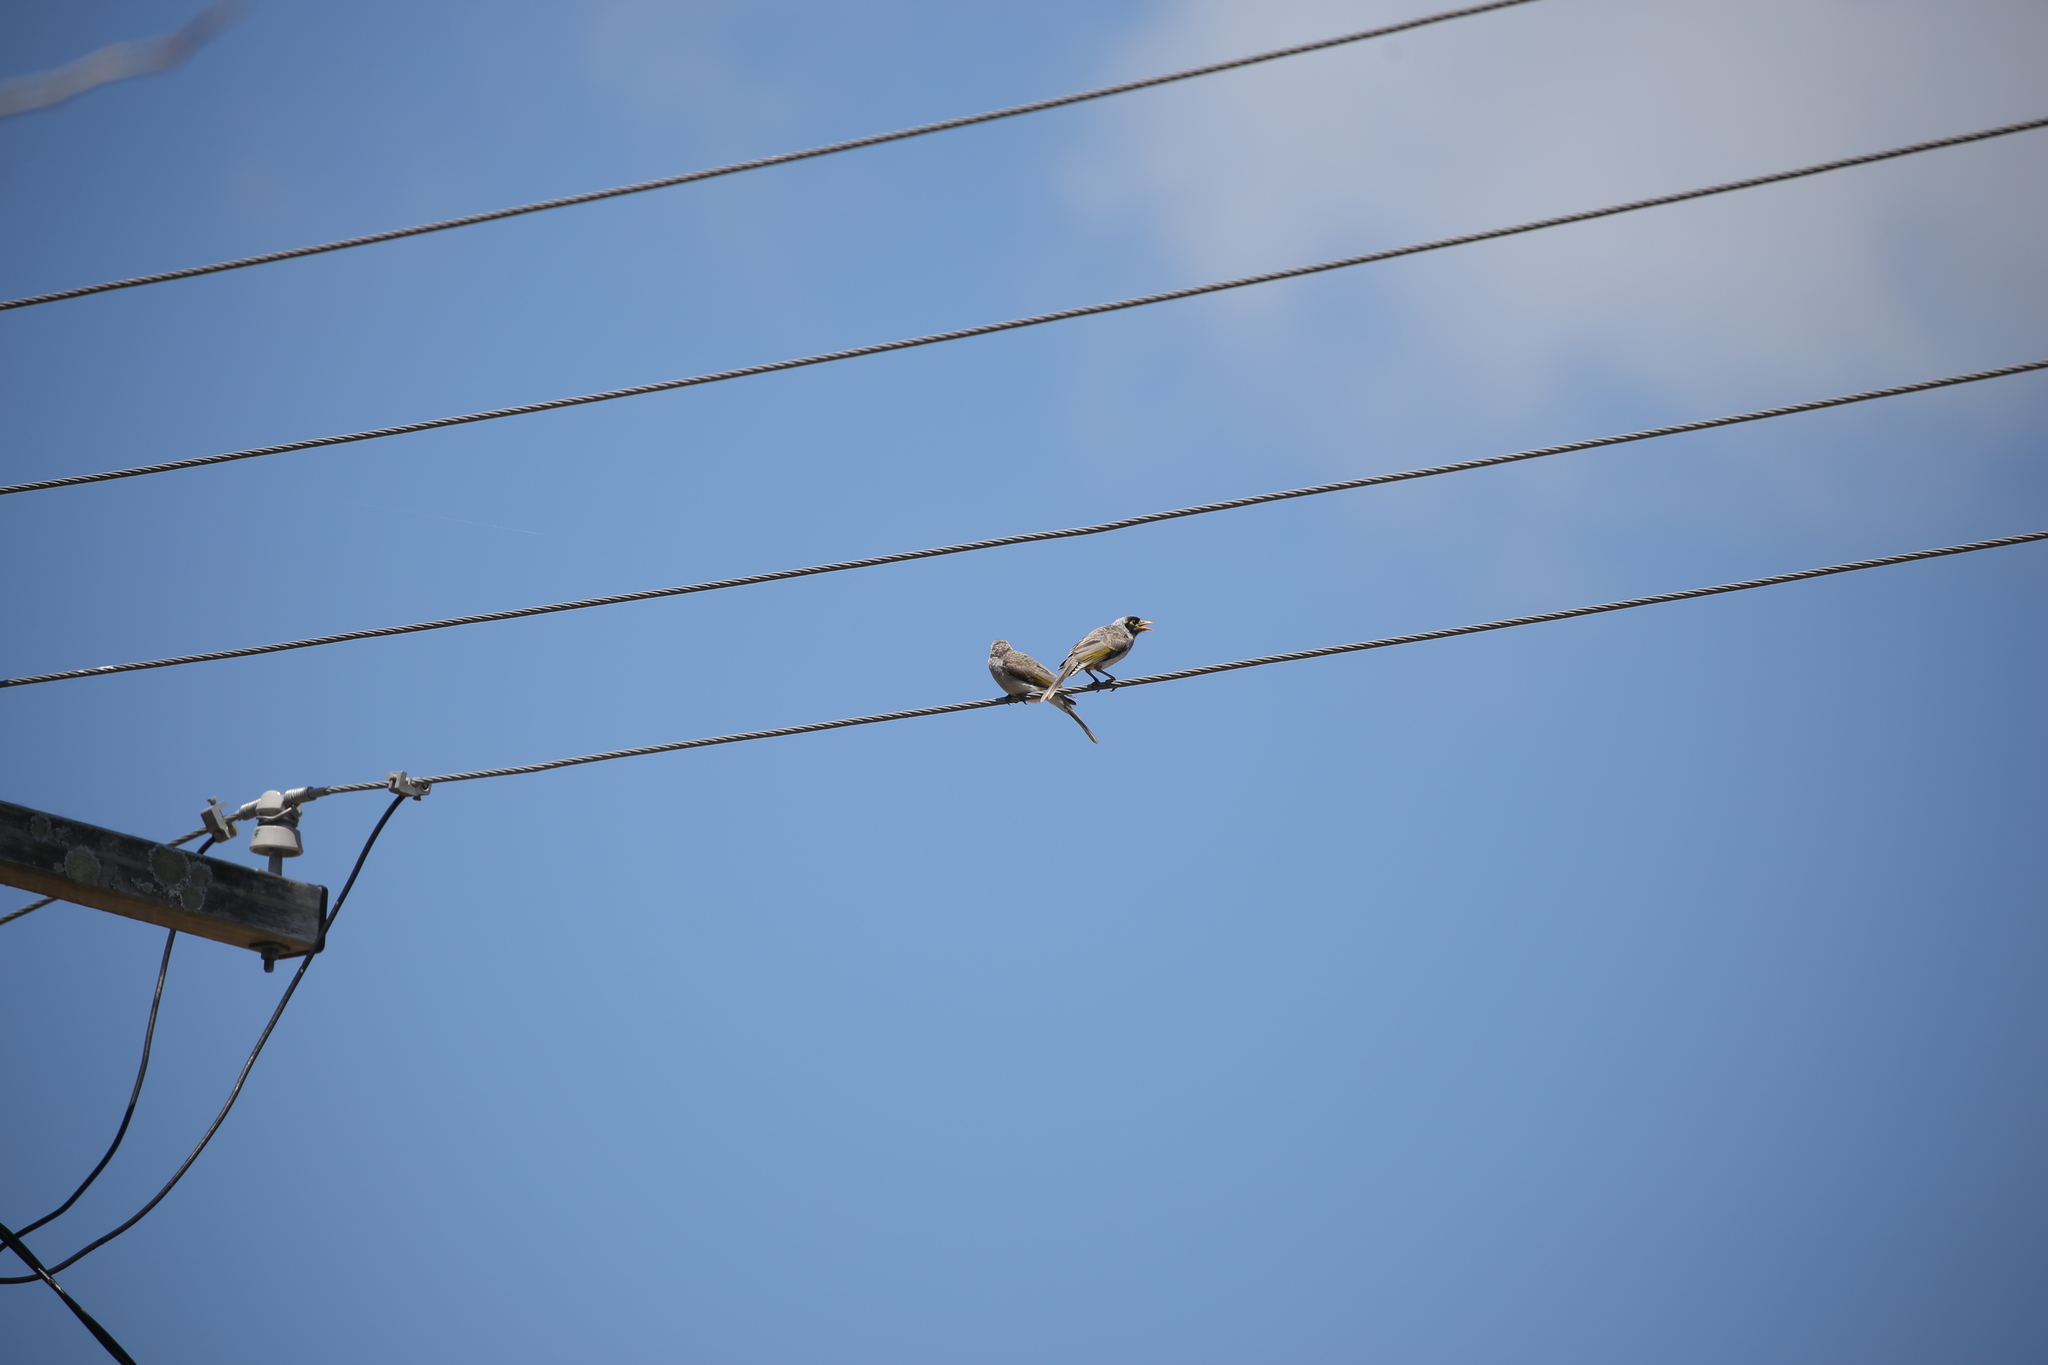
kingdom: Animalia
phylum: Chordata
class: Aves
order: Passeriformes
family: Meliphagidae
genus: Manorina
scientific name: Manorina melanocephala
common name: Noisy miner
